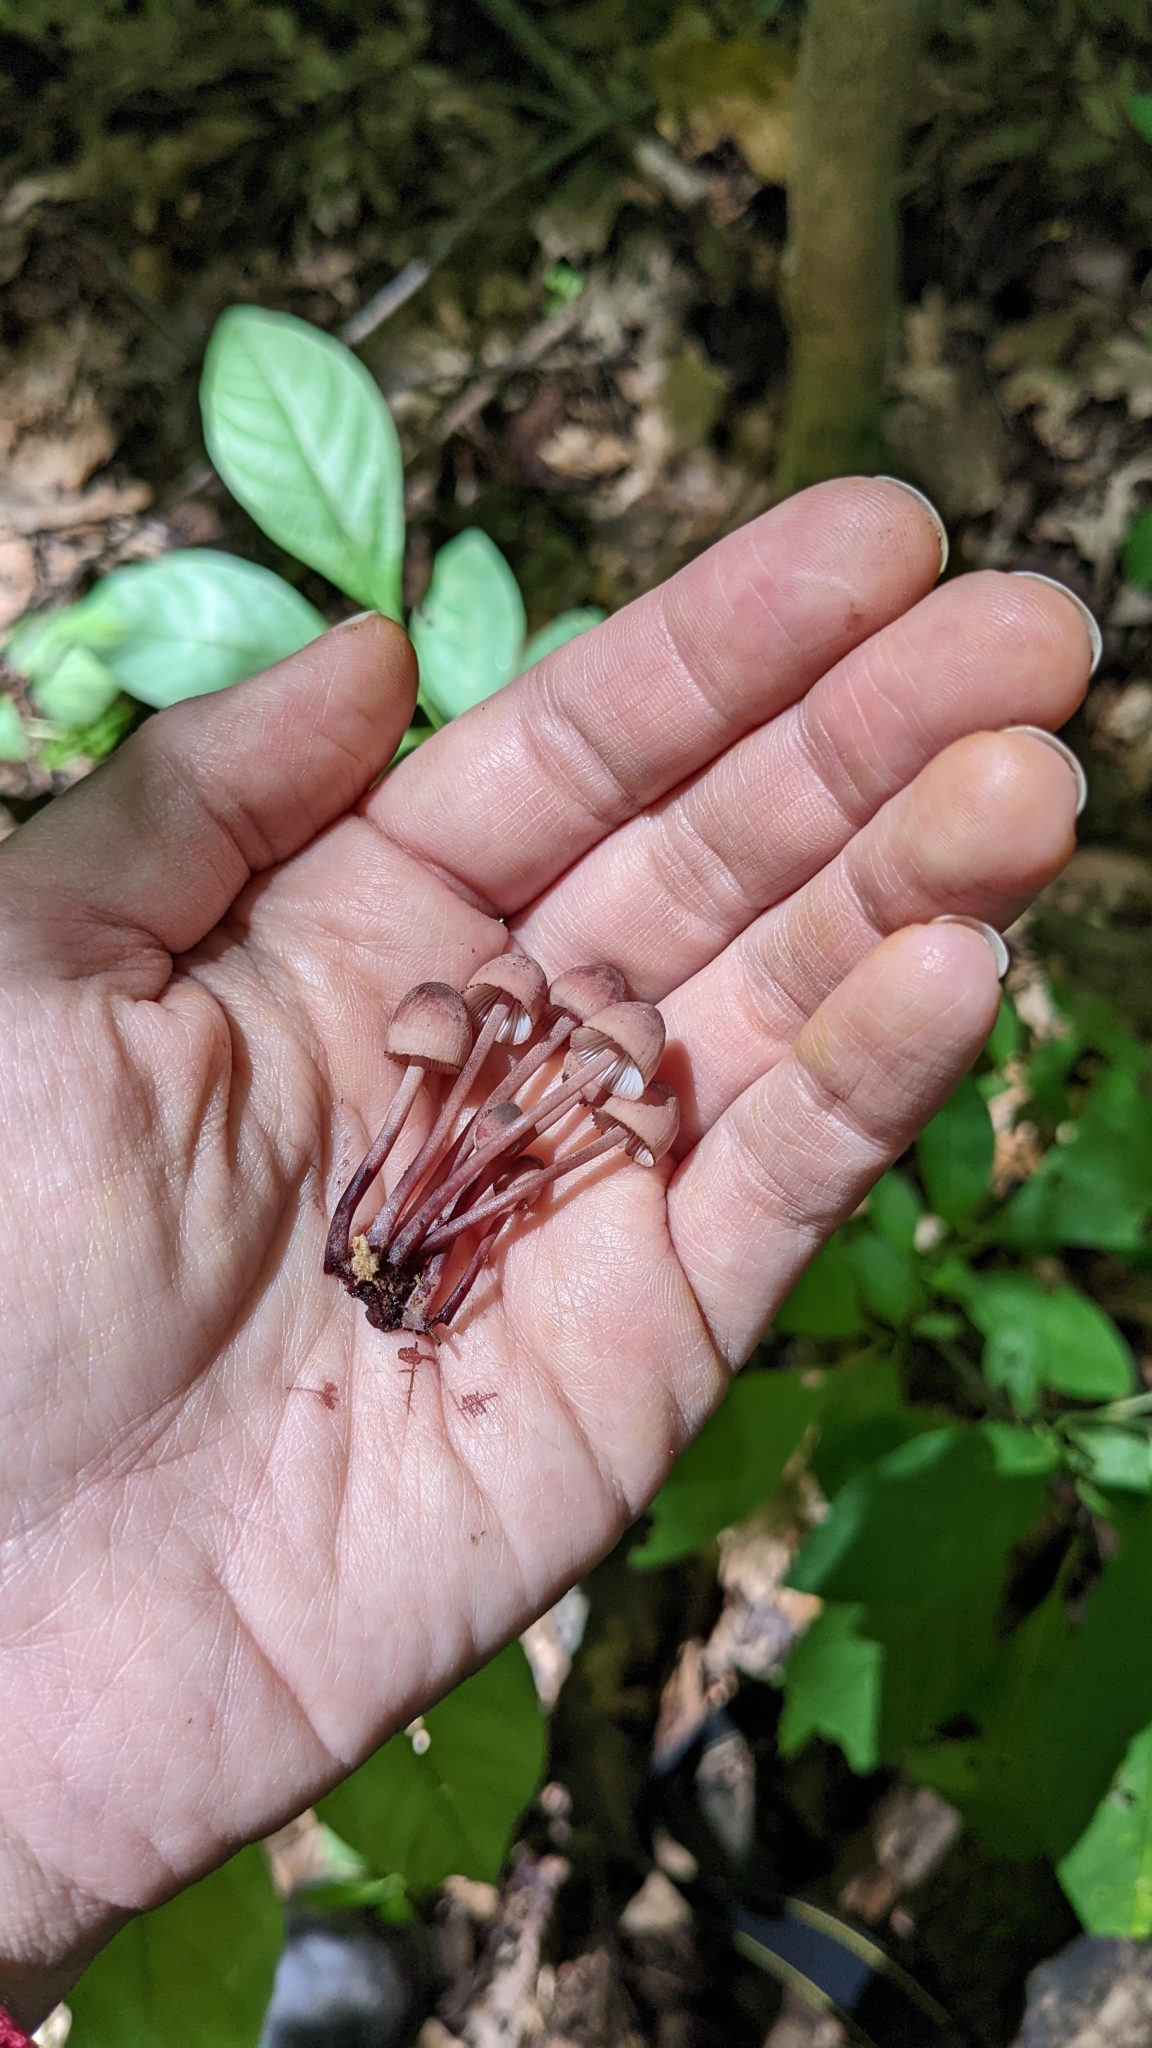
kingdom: Fungi
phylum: Basidiomycota
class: Agaricomycetes
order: Agaricales
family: Mycenaceae
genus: Mycena
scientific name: Mycena haematopus
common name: Burgundydrop bonnet
